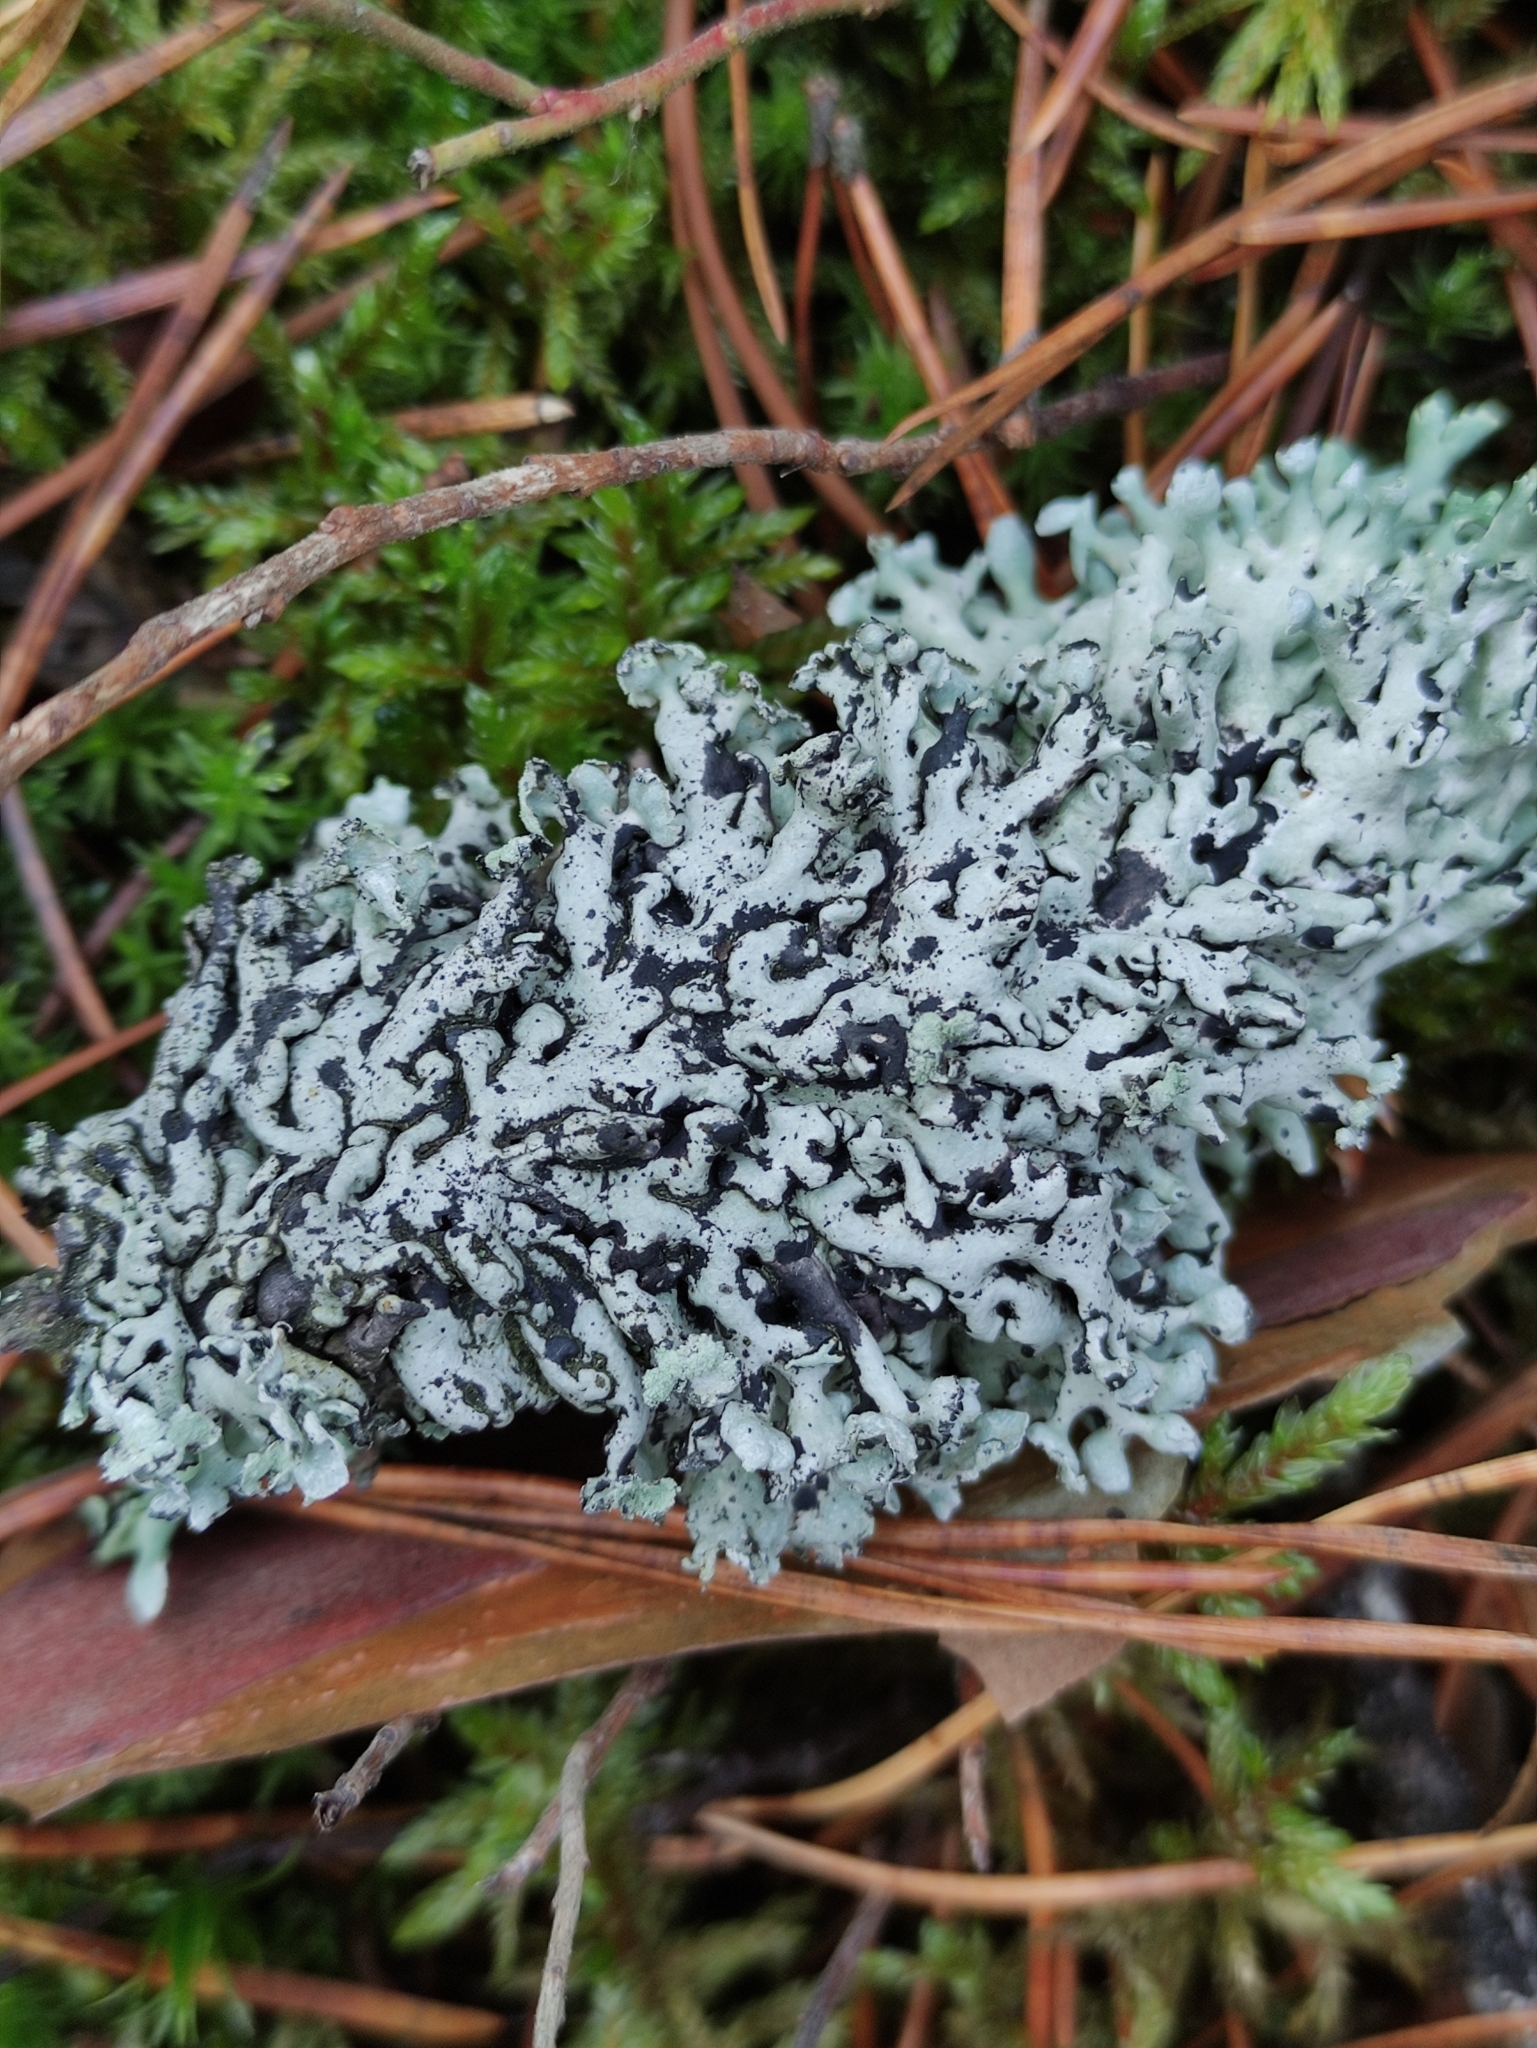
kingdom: Fungi
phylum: Ascomycota
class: Lecanoromycetes
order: Lecanorales
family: Parmeliaceae
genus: Hypogymnia
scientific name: Hypogymnia physodes
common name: Dark crottle
